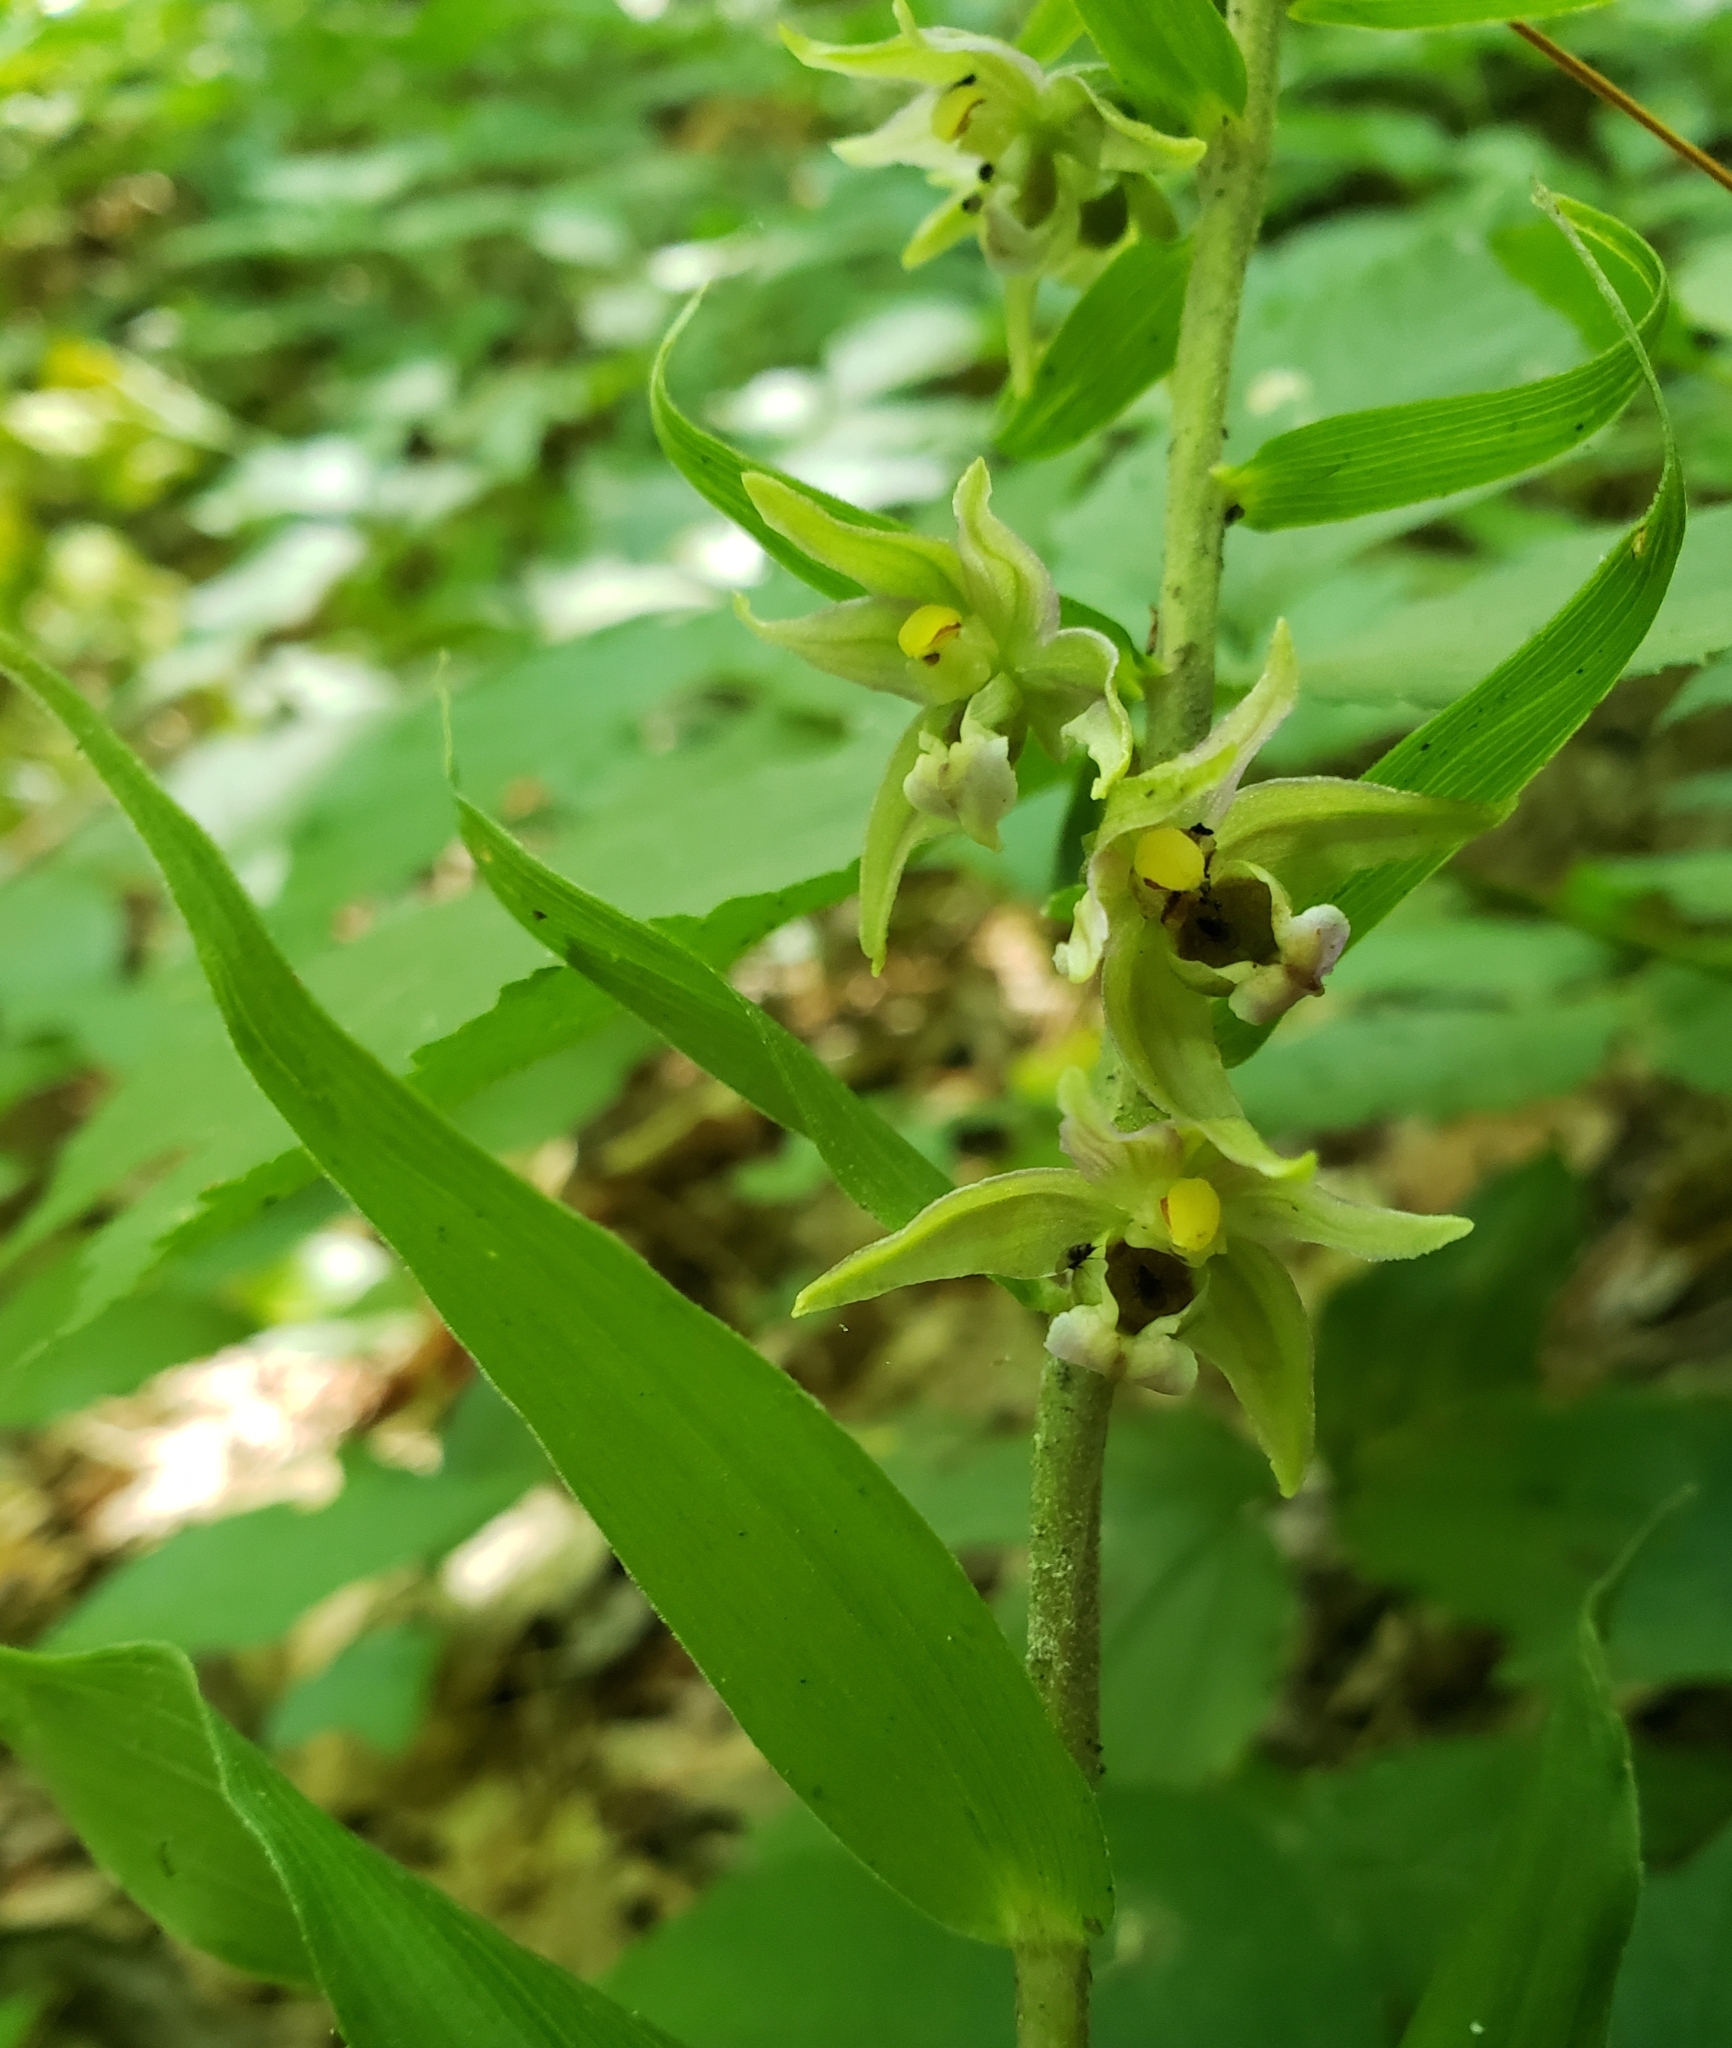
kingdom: Plantae
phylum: Tracheophyta
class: Liliopsida
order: Asparagales
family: Orchidaceae
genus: Epipactis
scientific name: Epipactis helleborine
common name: Broad-leaved helleborine
